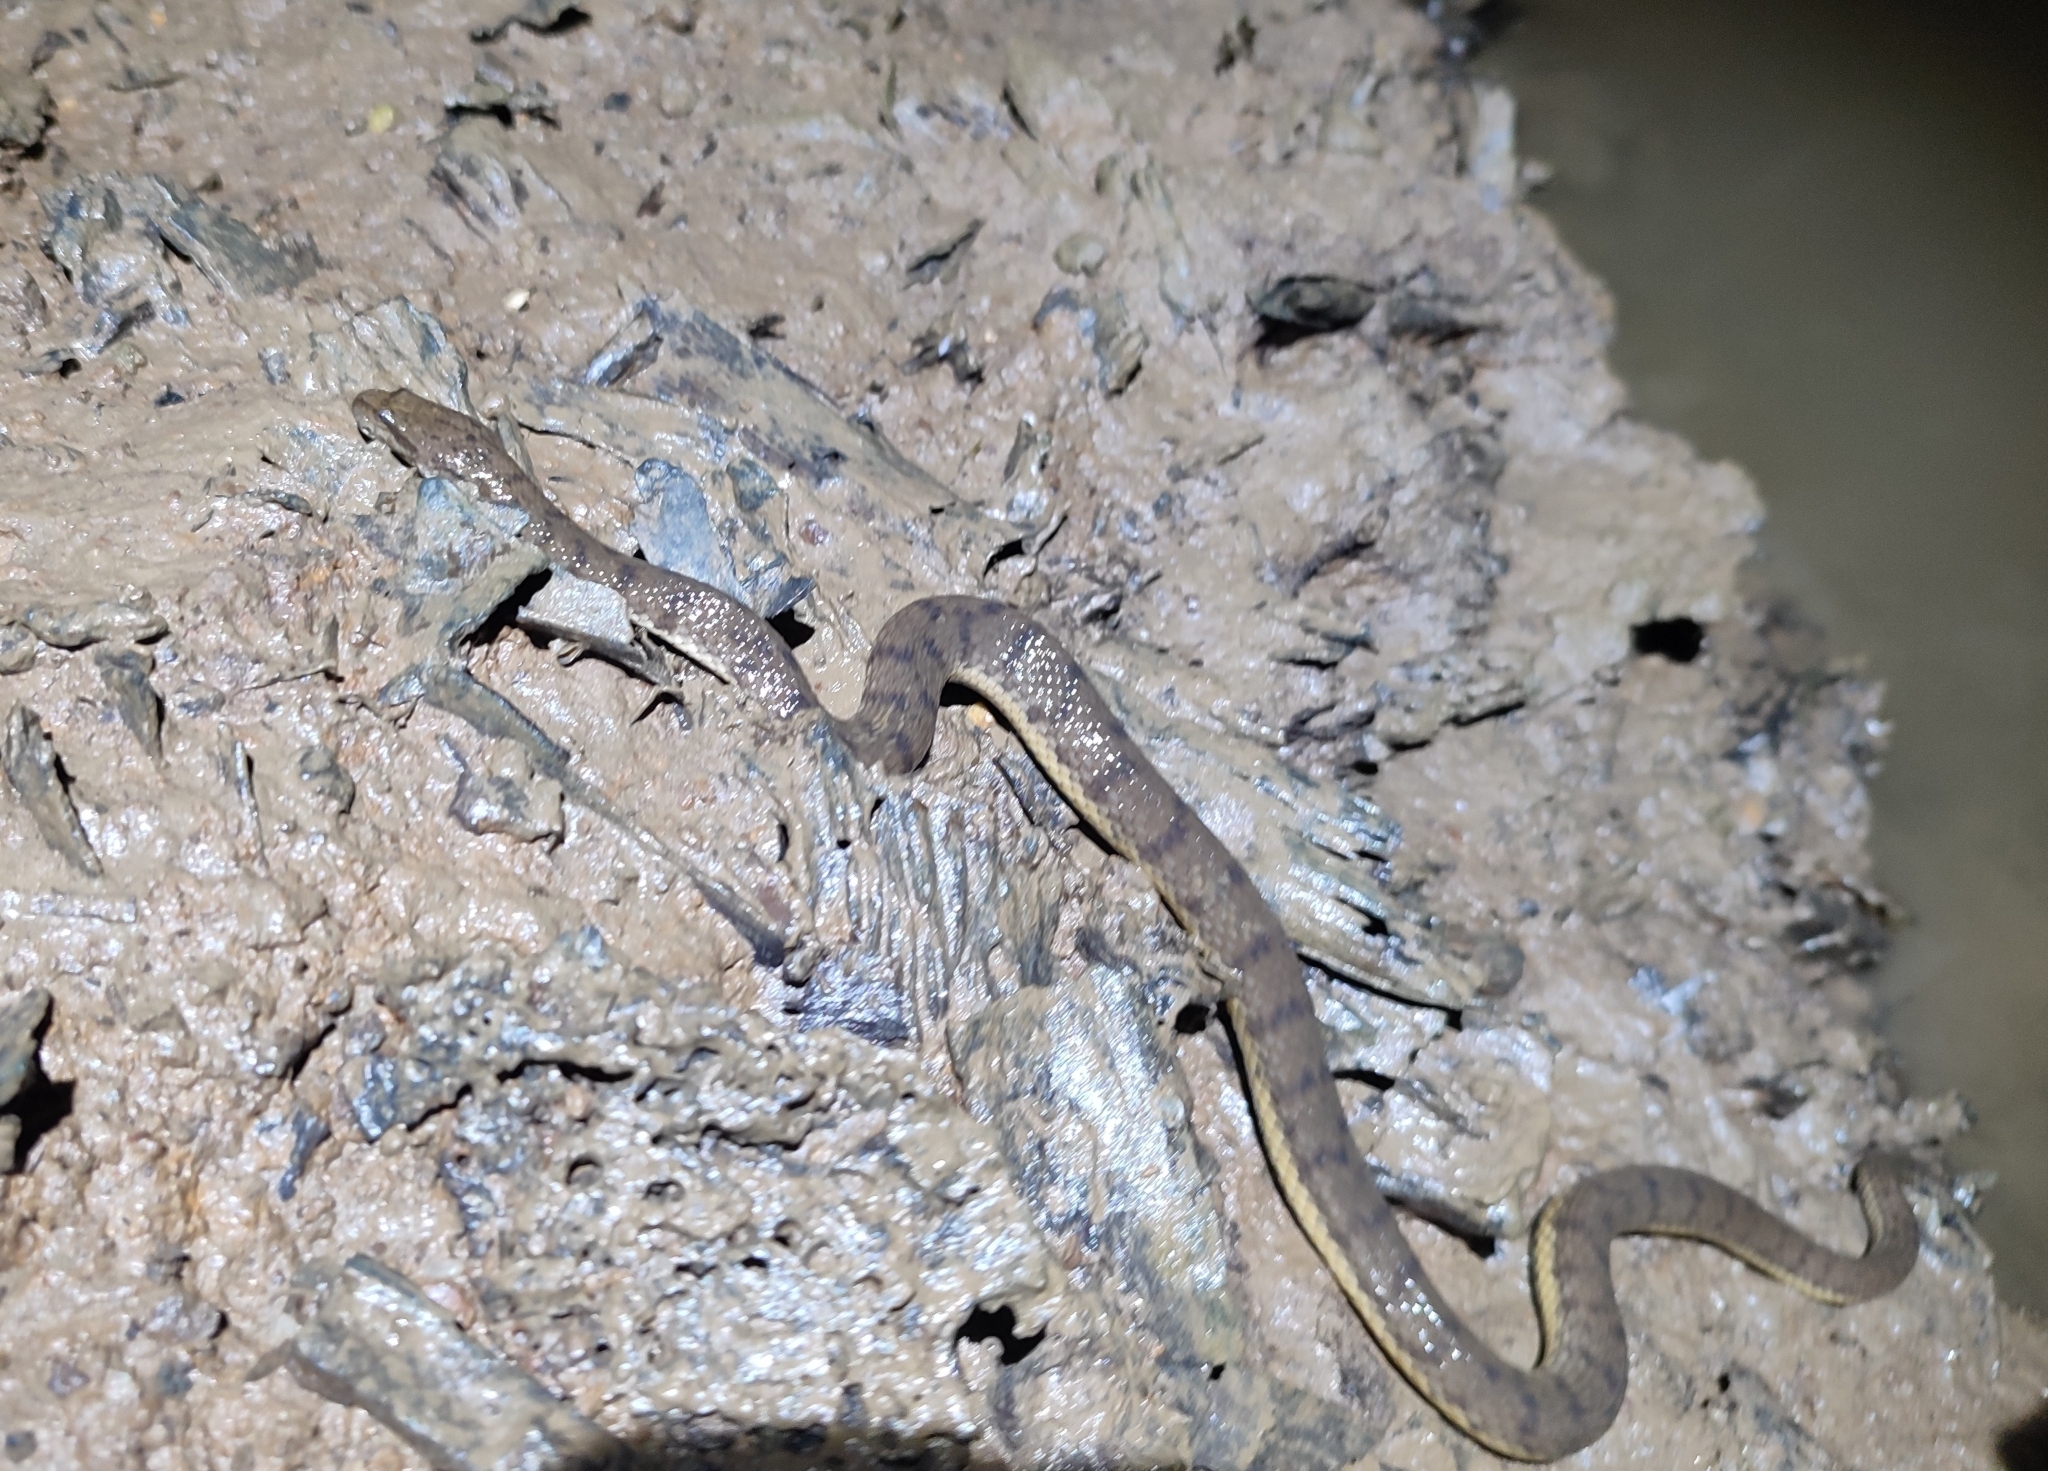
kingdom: Animalia
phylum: Chordata
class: Squamata
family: Homalopsidae
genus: Cerberus
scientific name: Cerberus schneiderii
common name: Southeast asian bockadam
